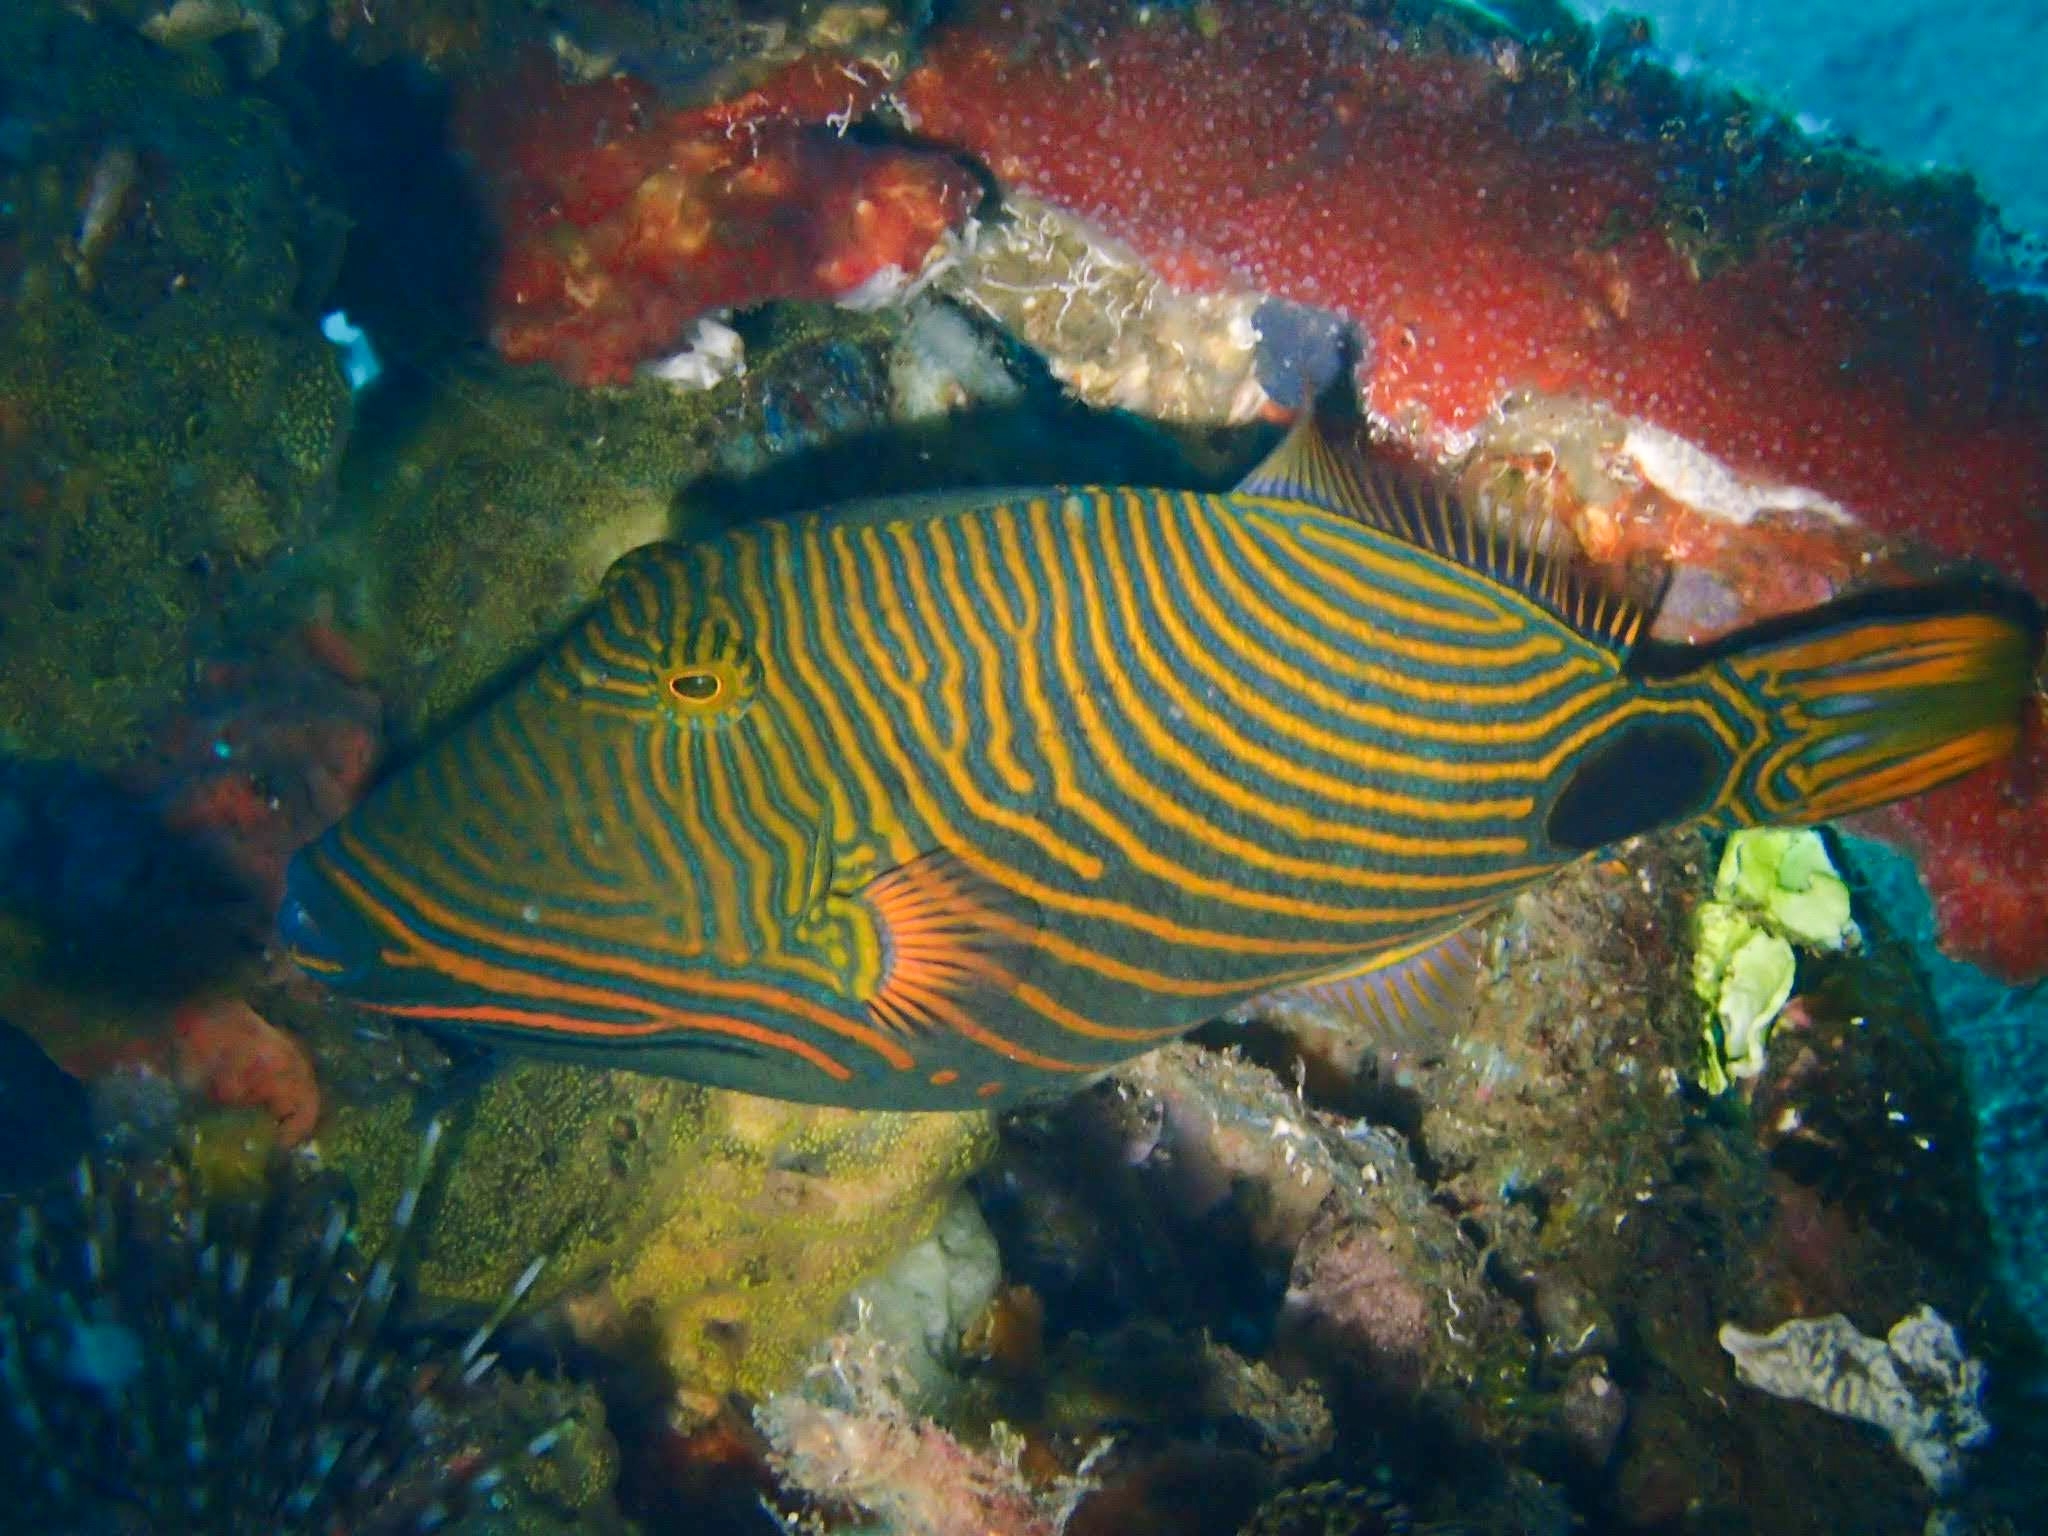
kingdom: Animalia
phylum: Chordata
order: Tetraodontiformes
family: Balistidae
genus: Balistapus
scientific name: Balistapus undulatus
